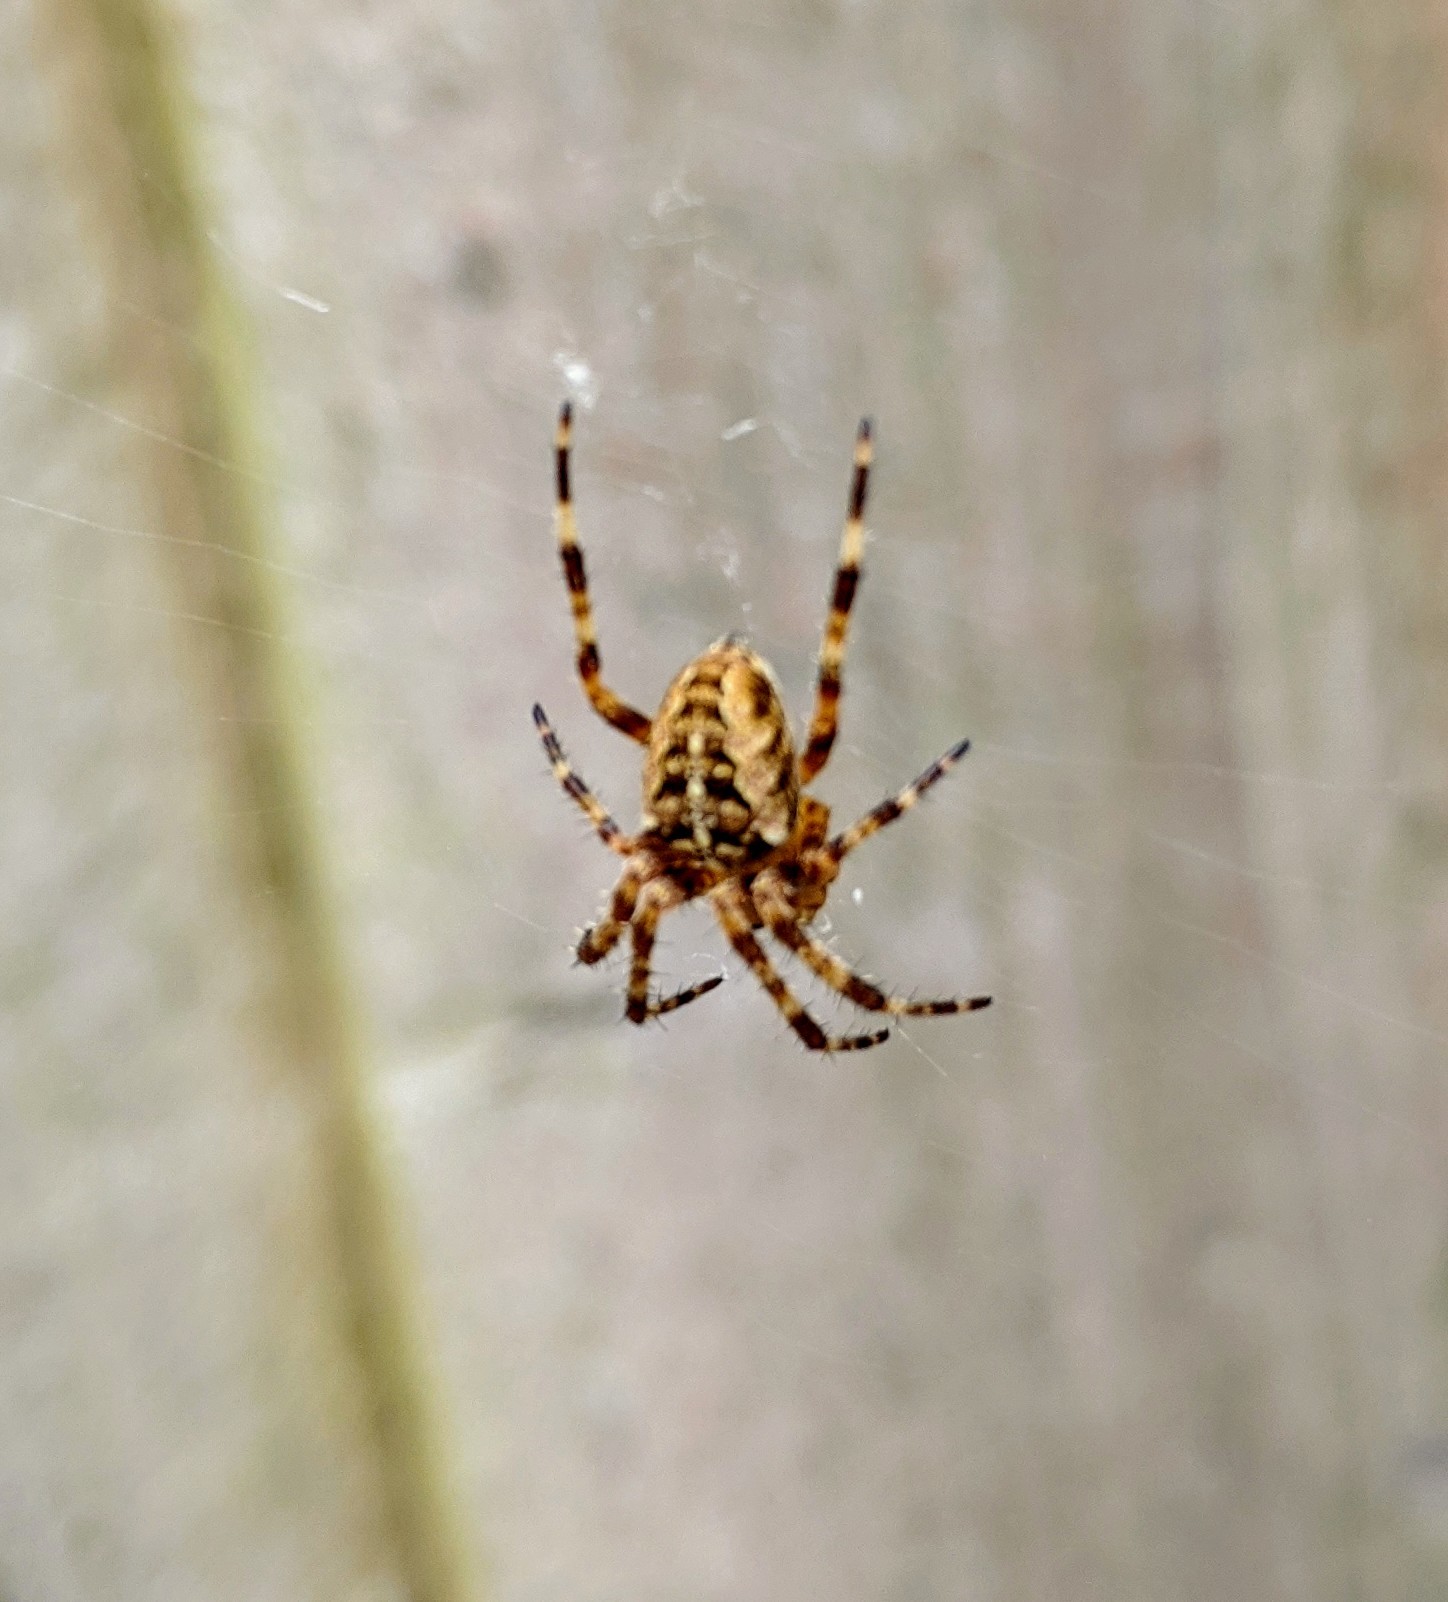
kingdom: Animalia
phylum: Arthropoda
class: Arachnida
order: Araneae
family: Araneidae
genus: Araneus
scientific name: Araneus diadematus
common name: Cross orbweaver
